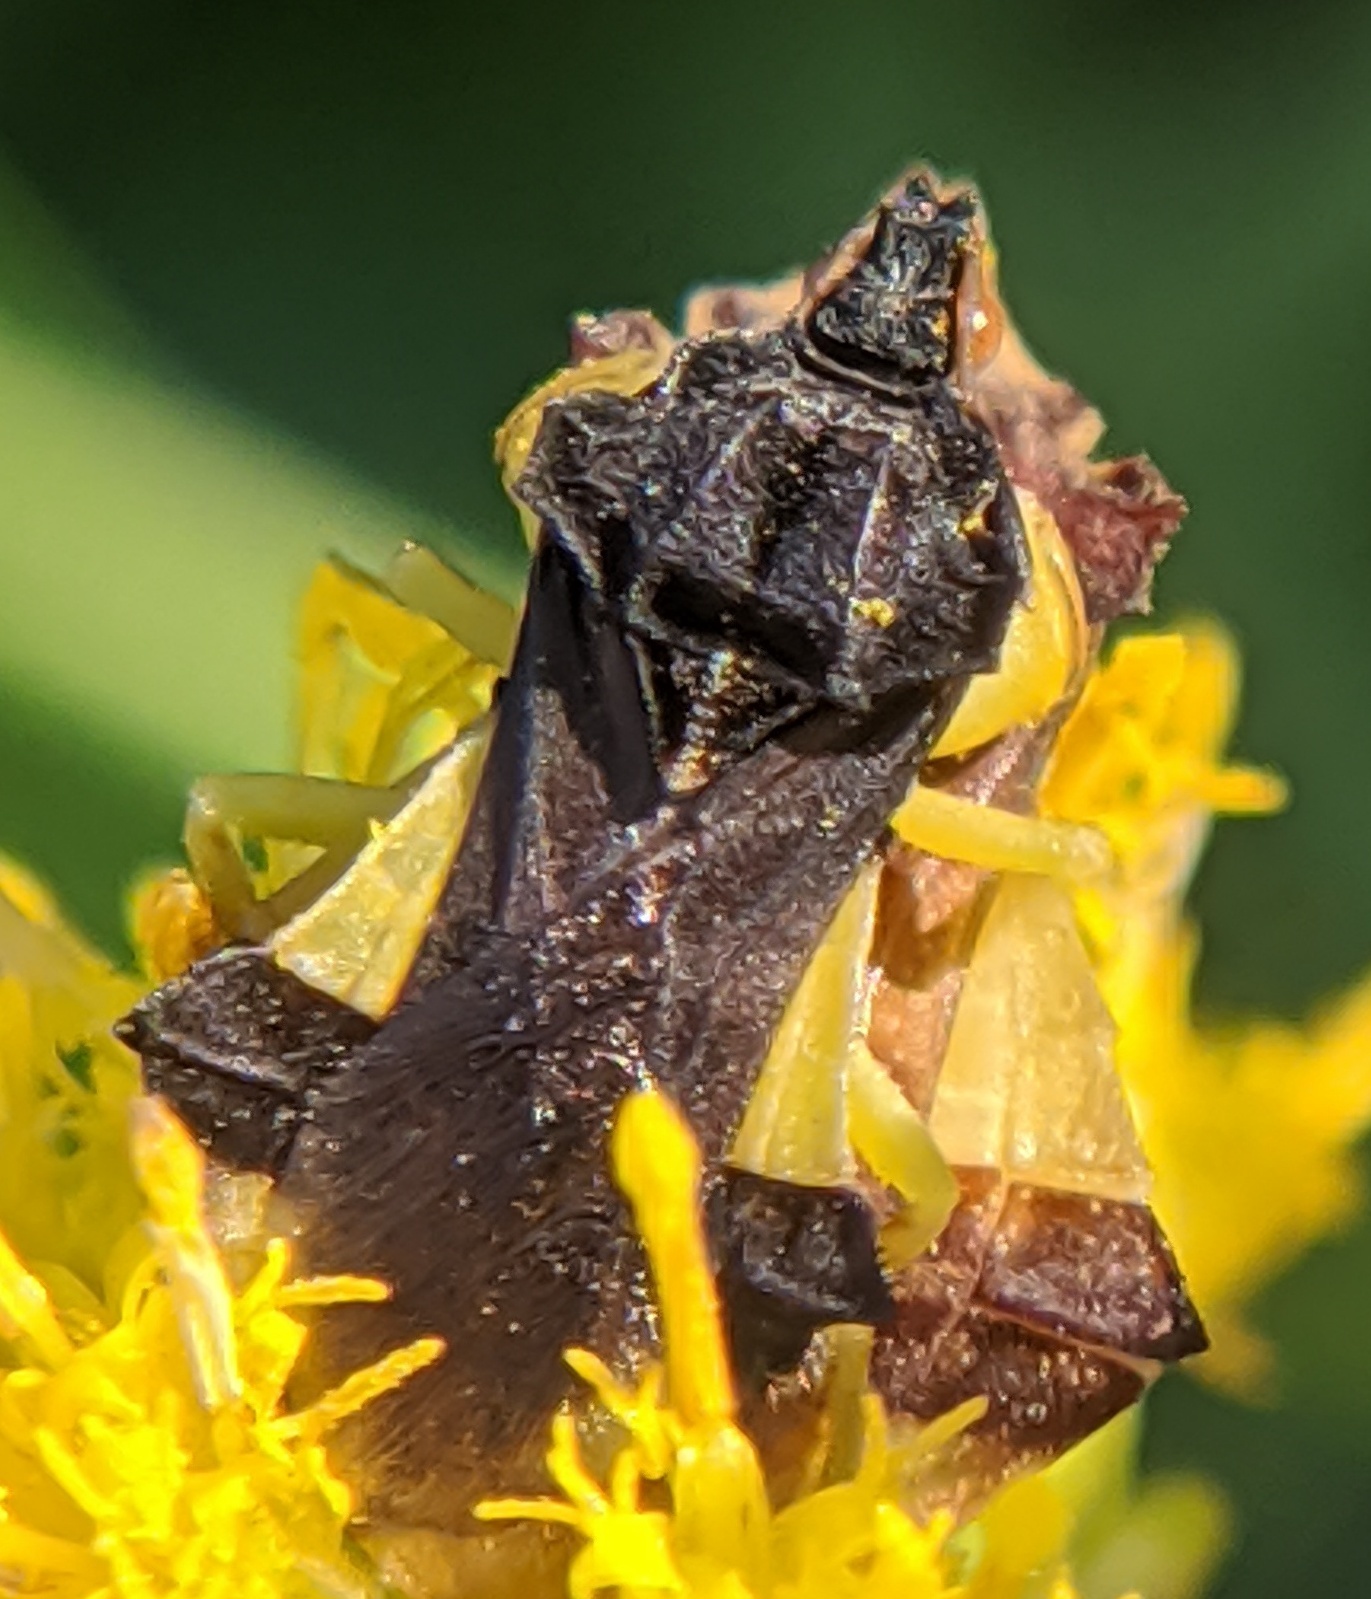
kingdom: Animalia
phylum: Arthropoda
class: Insecta
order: Hemiptera
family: Reduviidae
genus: Phymata
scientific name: Phymata pennsylvanica
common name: Pennsylvania ambush bug
